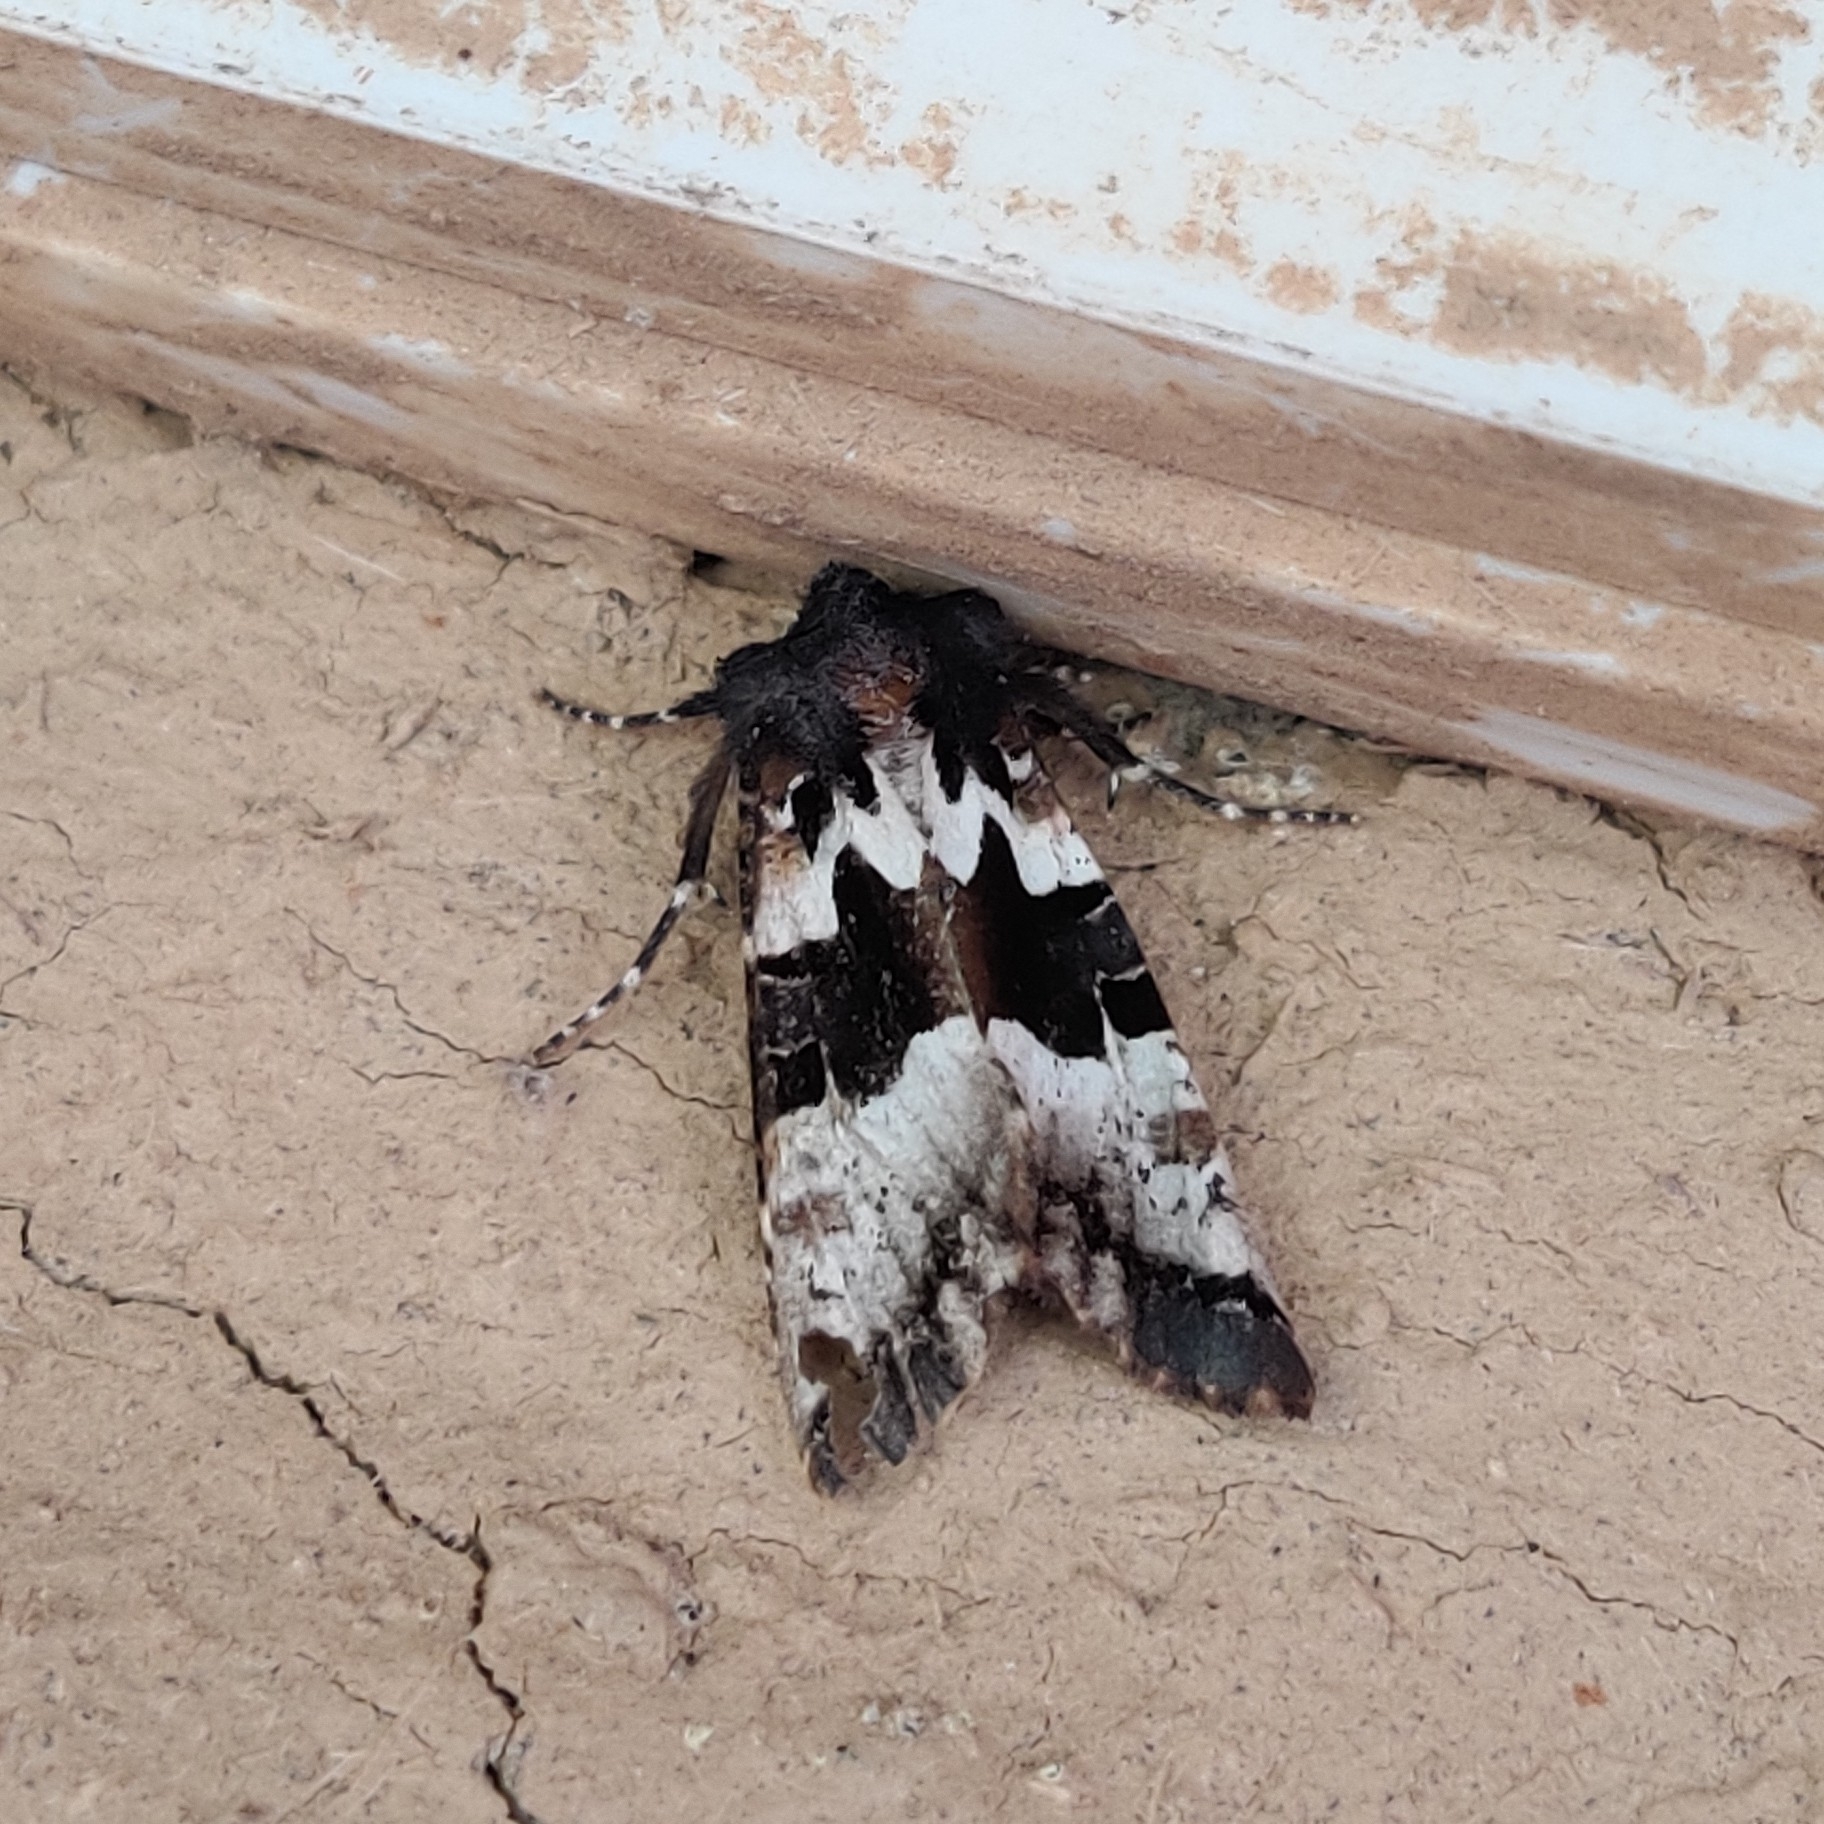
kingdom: Animalia
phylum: Arthropoda
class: Insecta
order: Lepidoptera
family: Noctuidae
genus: Phlogophora
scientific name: Phlogophora albovittata
